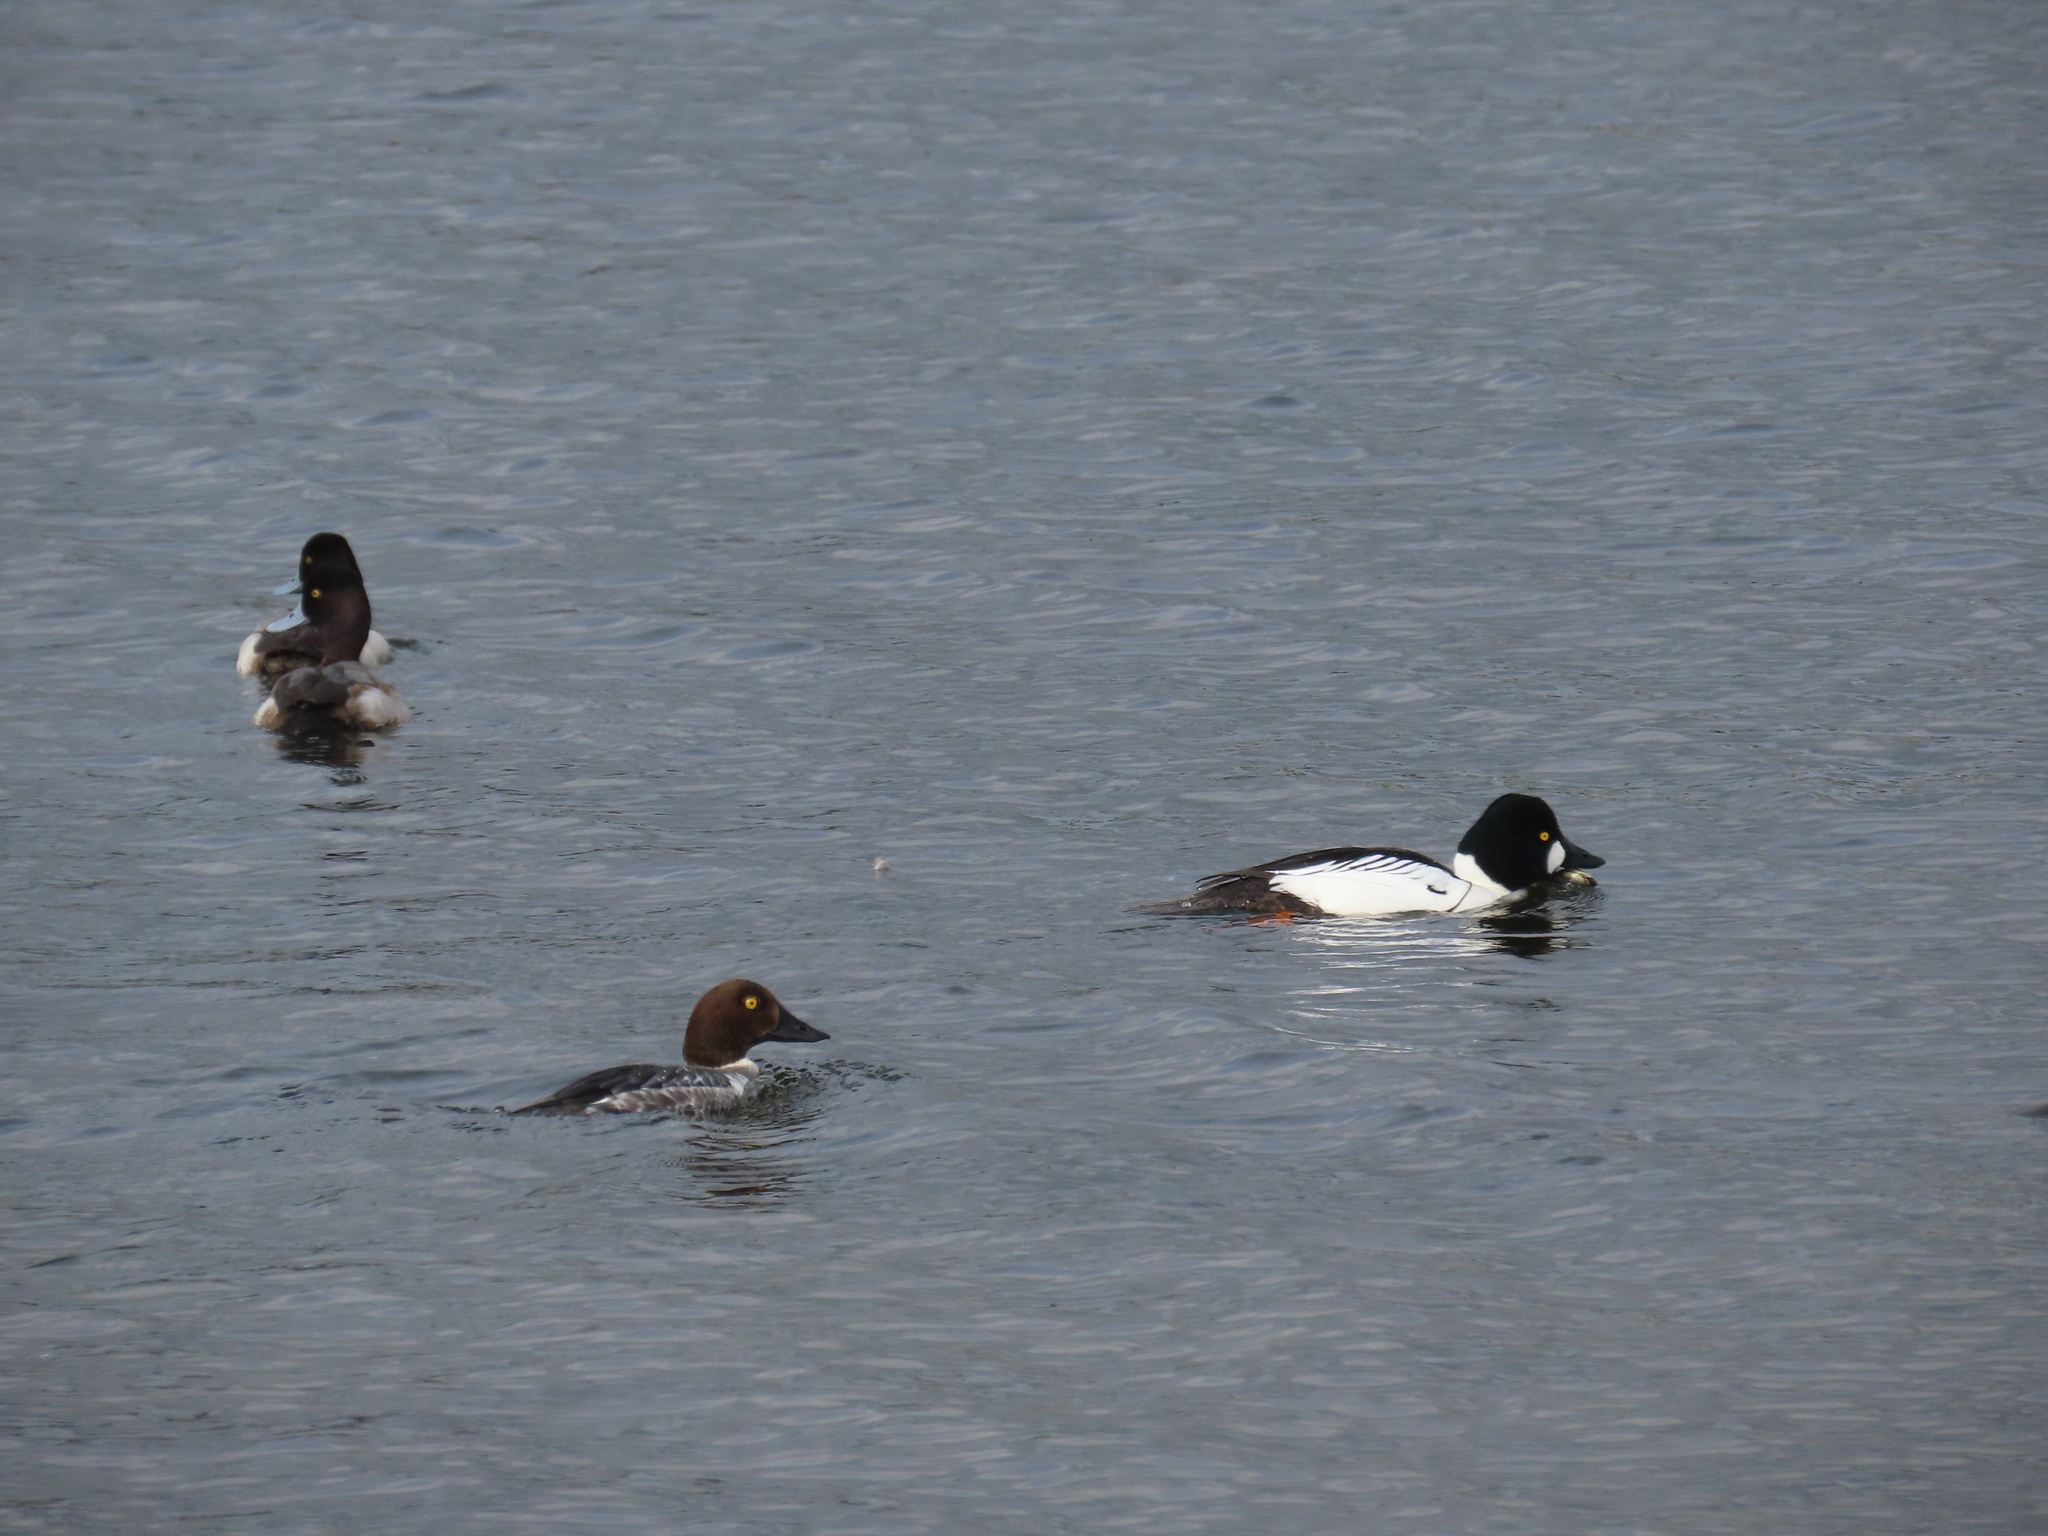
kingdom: Animalia
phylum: Chordata
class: Aves
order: Anseriformes
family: Anatidae
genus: Bucephala
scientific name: Bucephala clangula
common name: Common goldeneye
